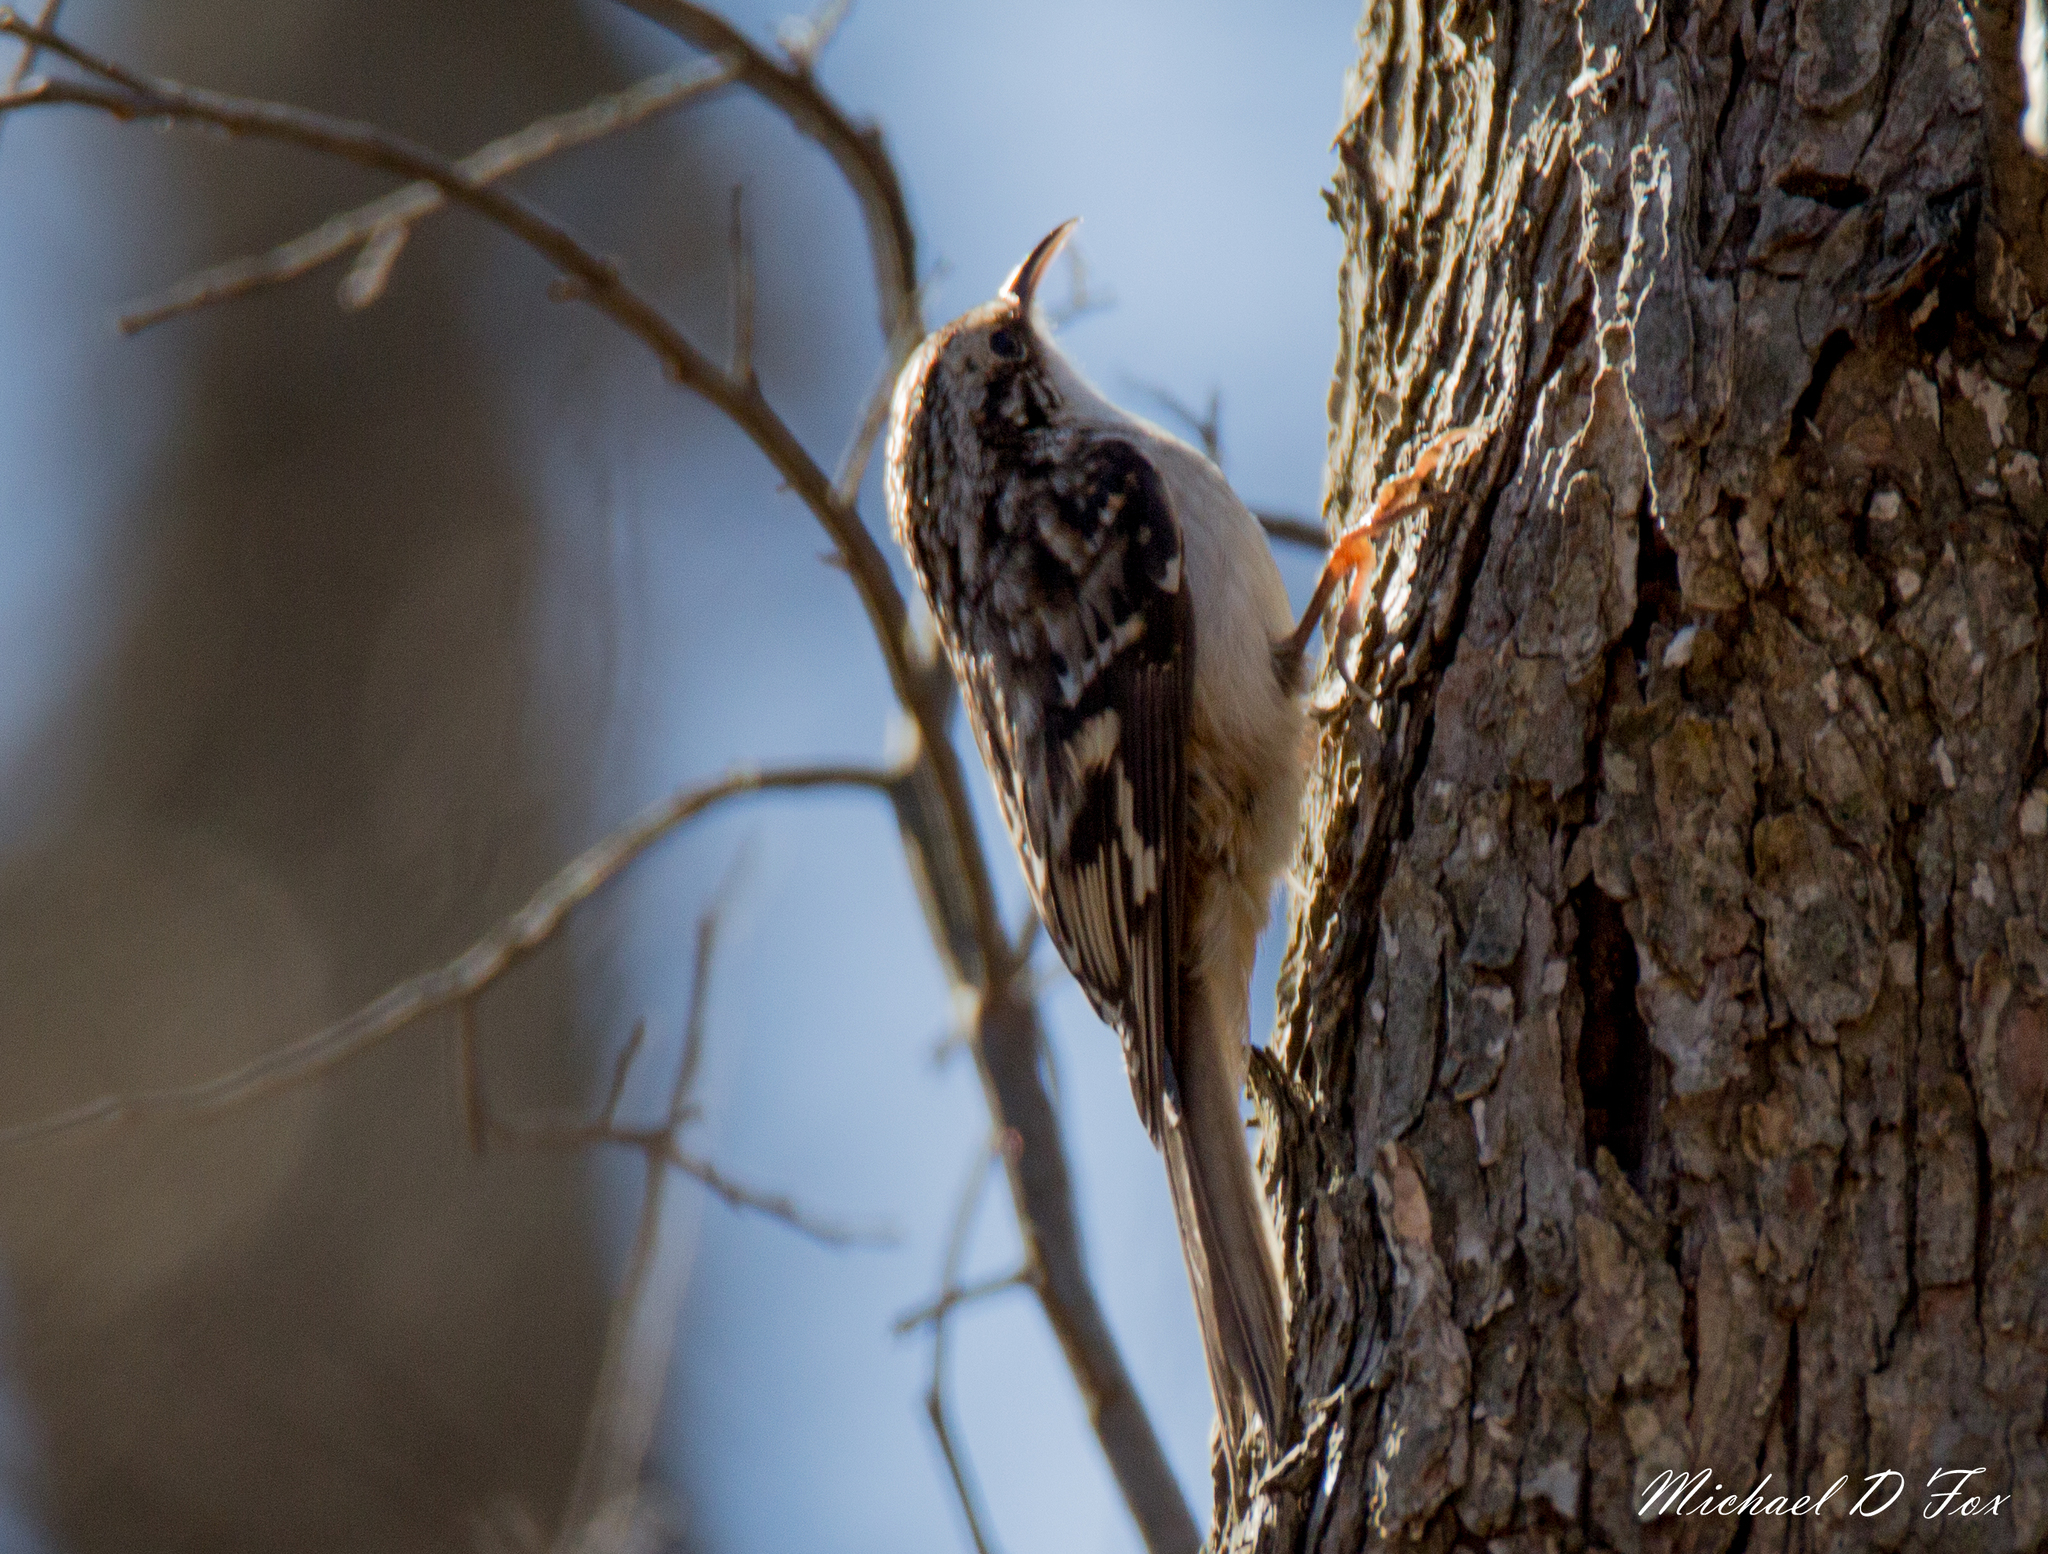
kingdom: Animalia
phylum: Chordata
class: Aves
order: Passeriformes
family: Certhiidae
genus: Certhia
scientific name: Certhia americana
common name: Brown creeper
